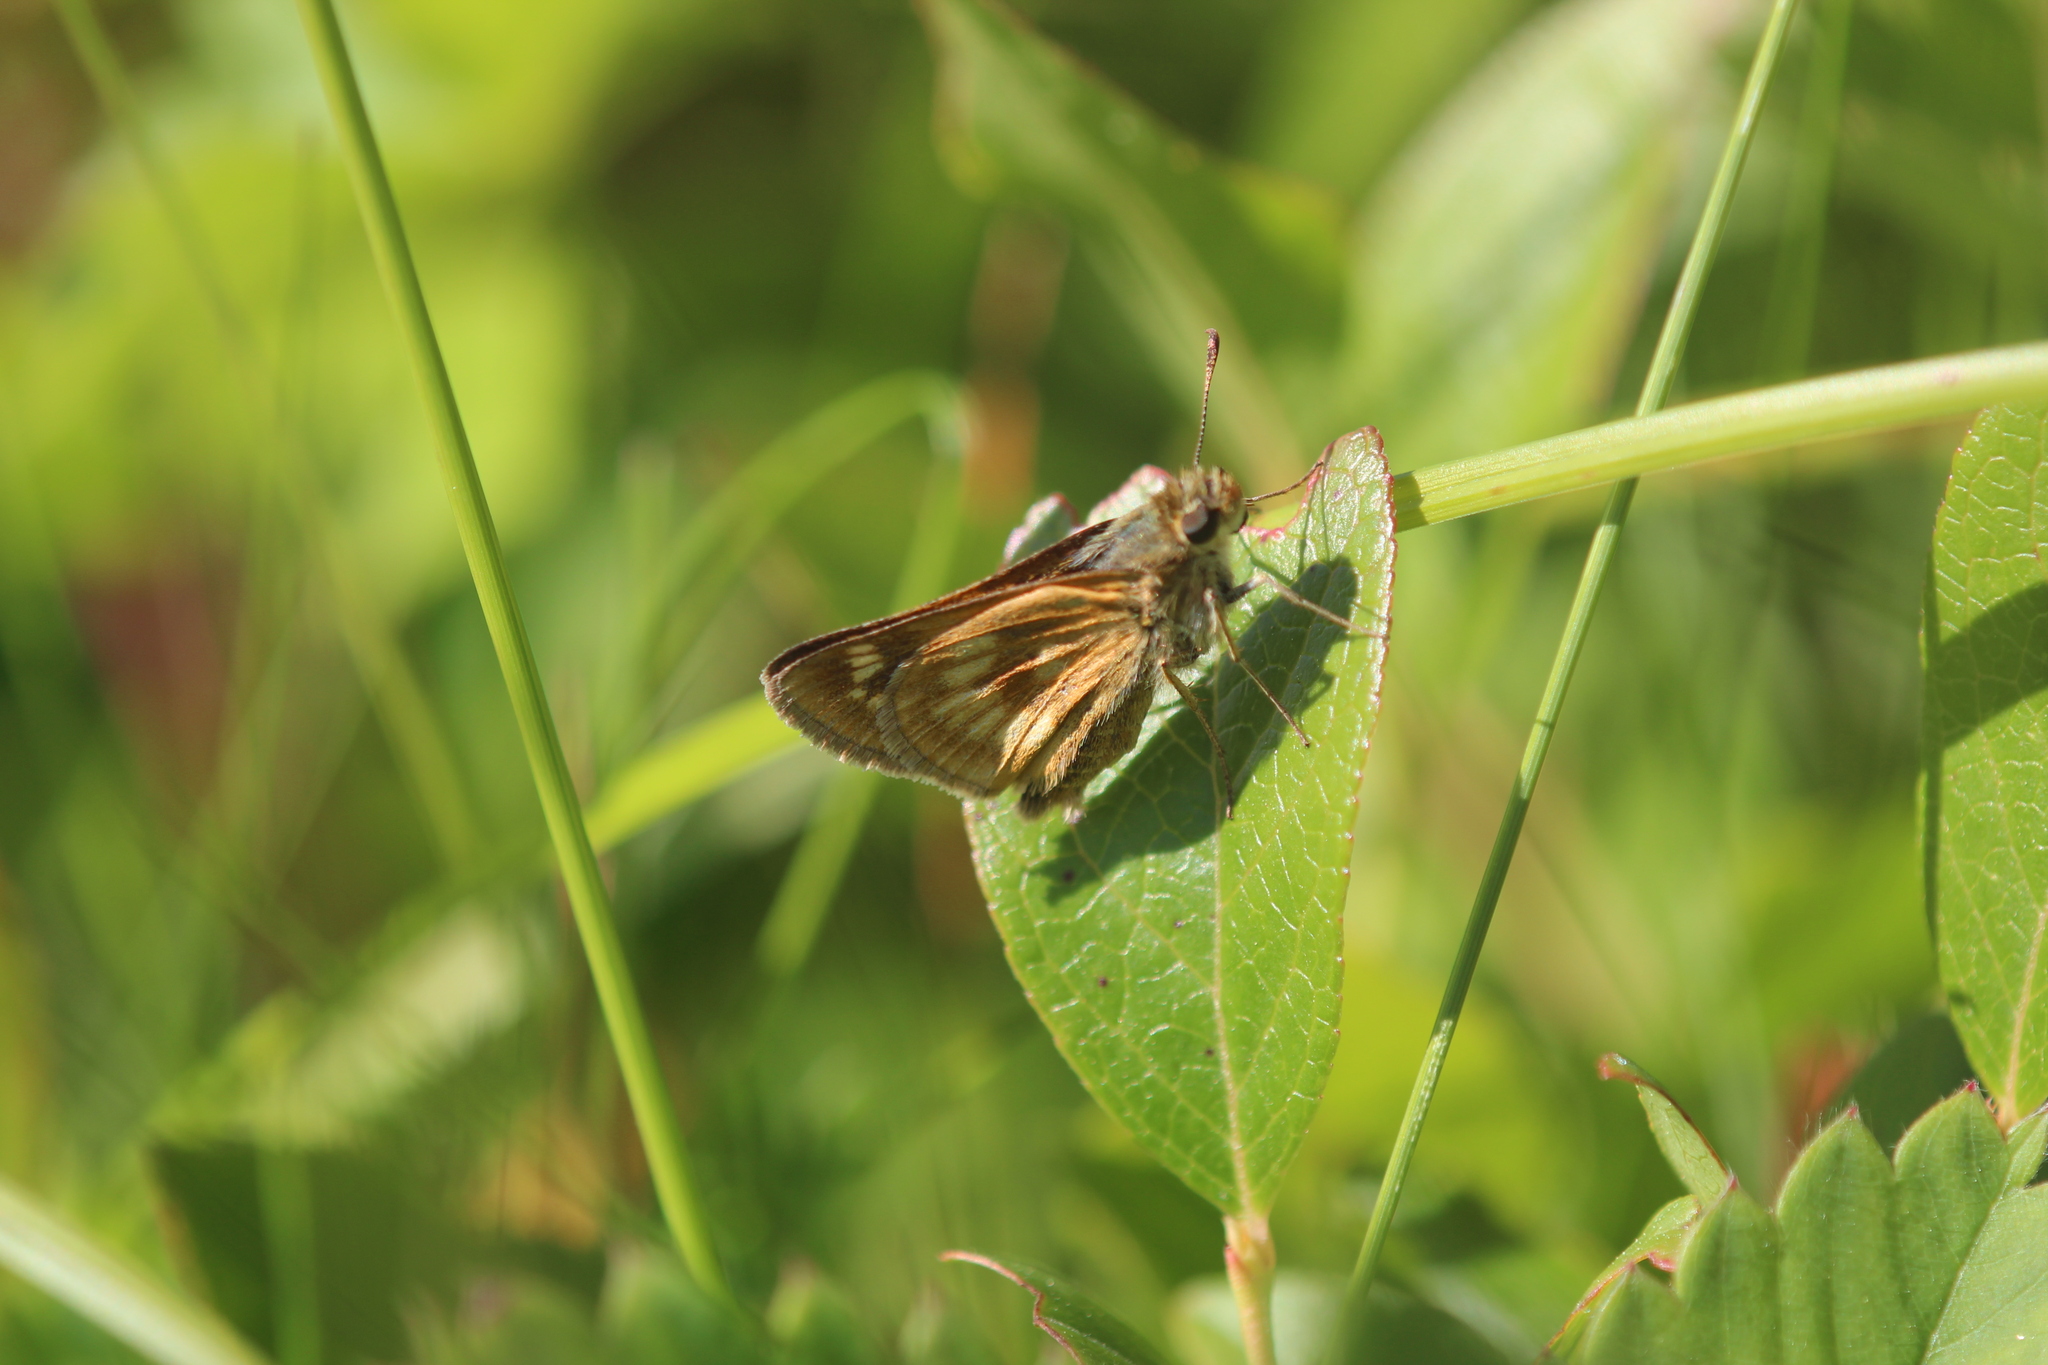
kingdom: Animalia
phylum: Arthropoda
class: Insecta
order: Lepidoptera
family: Hesperiidae
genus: Polites
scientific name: Polites mystic
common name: Long dash
